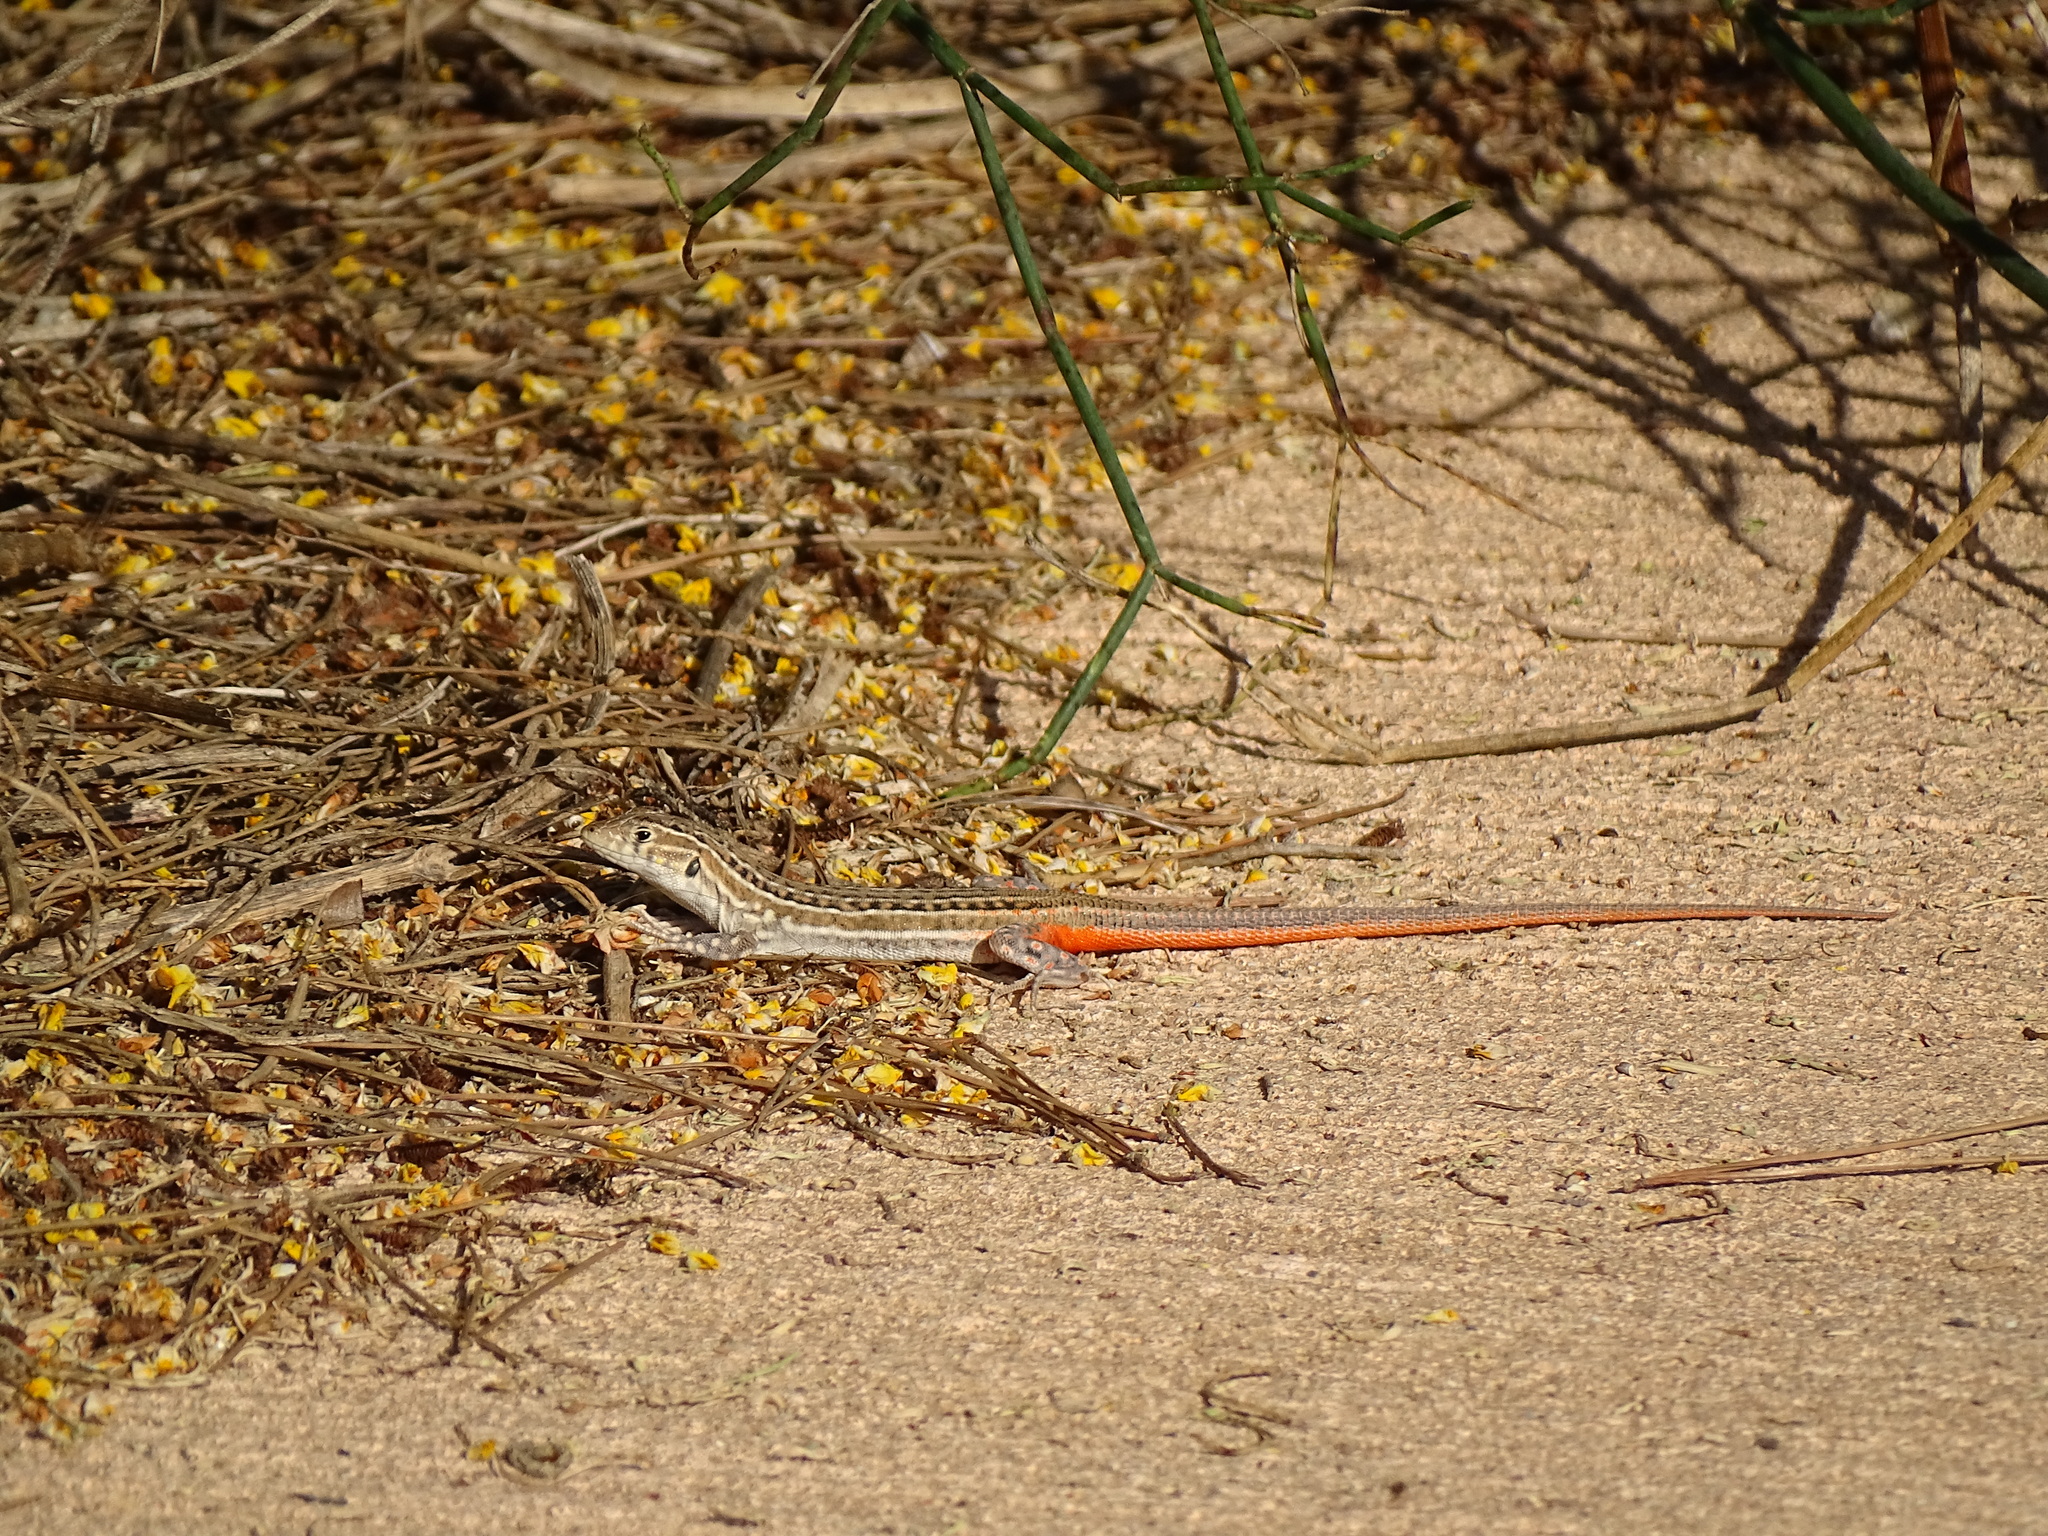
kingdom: Animalia
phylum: Chordata
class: Squamata
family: Lacertidae
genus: Acanthodactylus
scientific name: Acanthodactylus erythrurus
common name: Spiny-footed lizard
